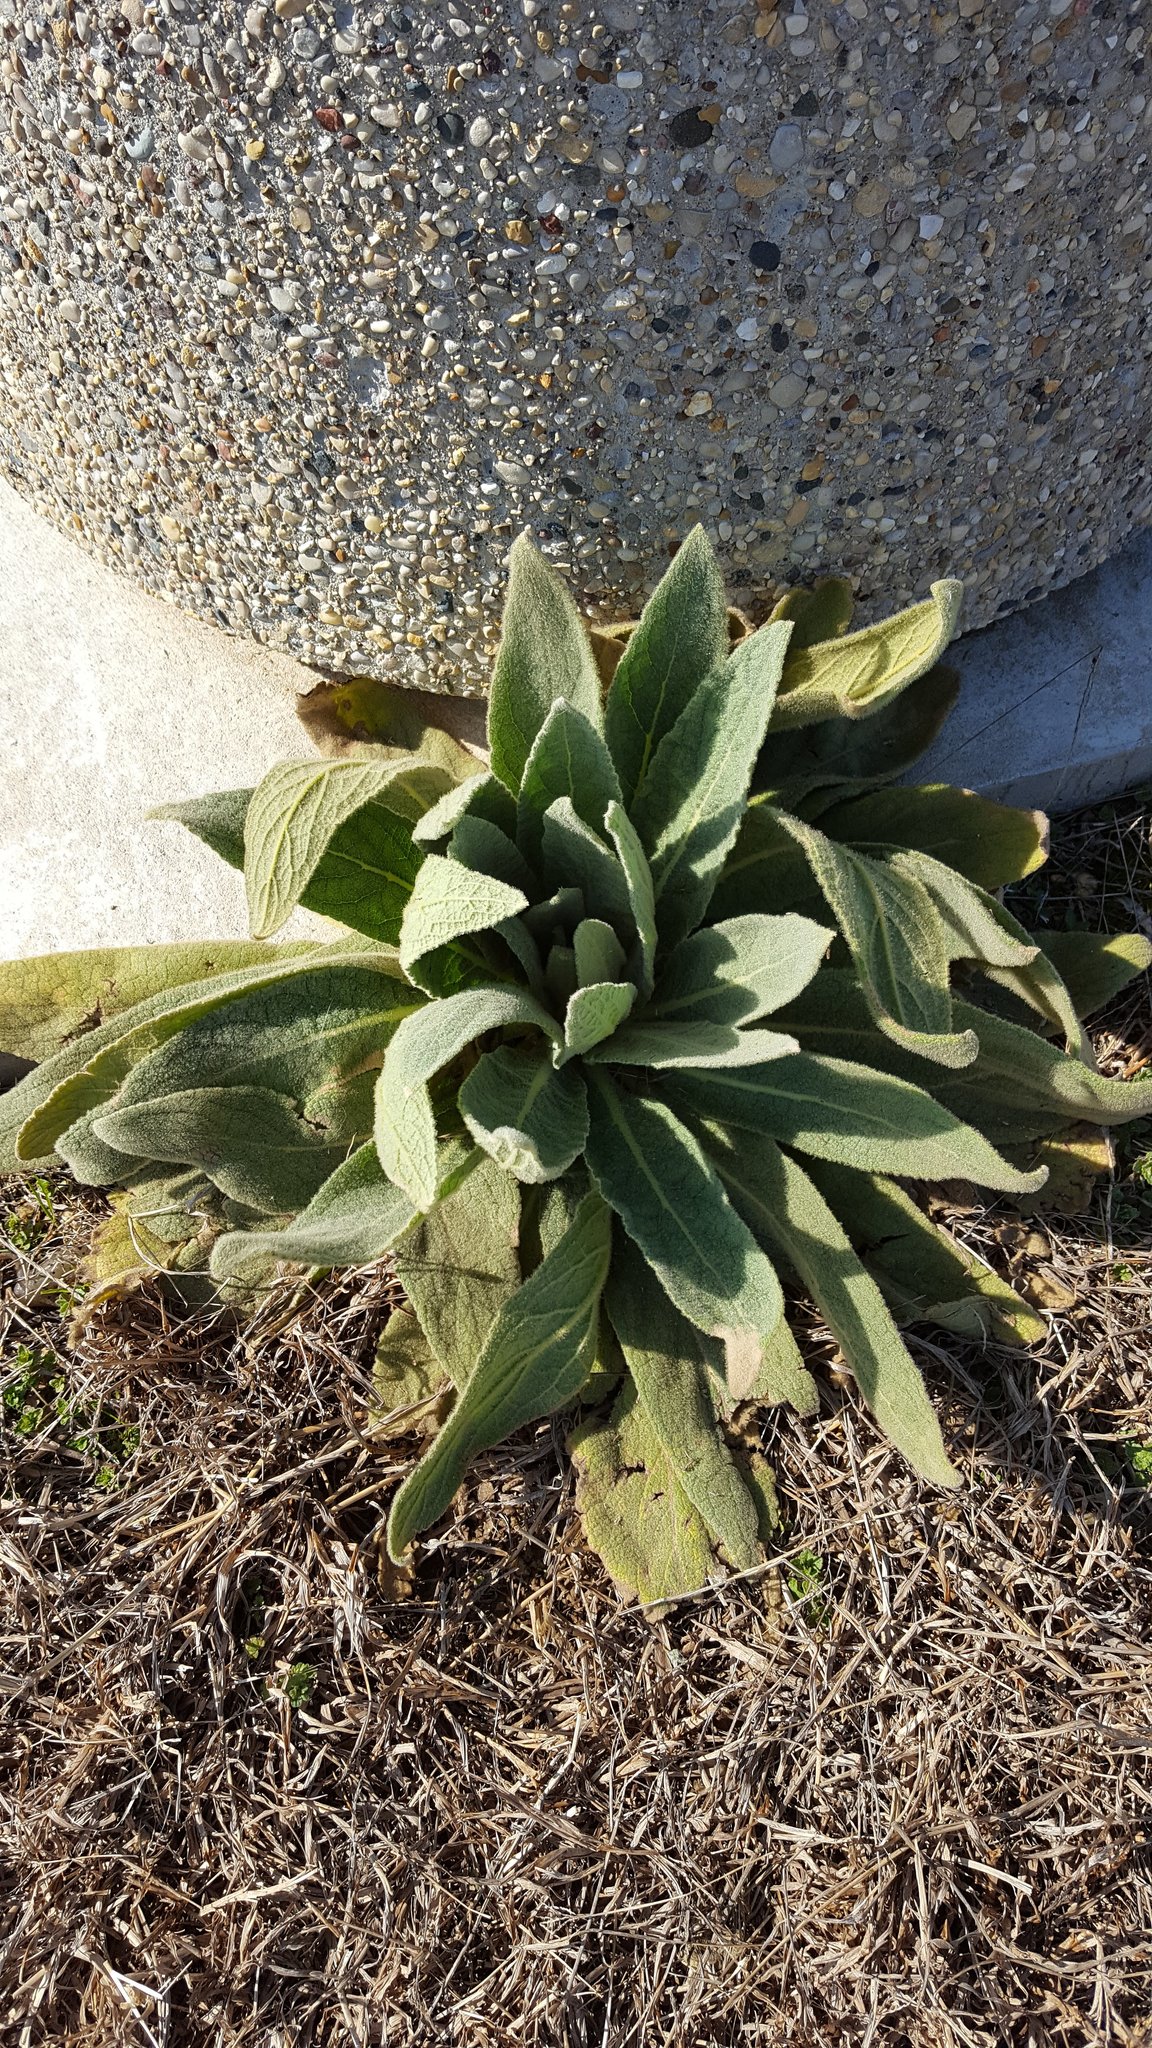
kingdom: Plantae
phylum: Tracheophyta
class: Magnoliopsida
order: Lamiales
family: Scrophulariaceae
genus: Verbascum
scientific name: Verbascum thapsus
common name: Common mullein
